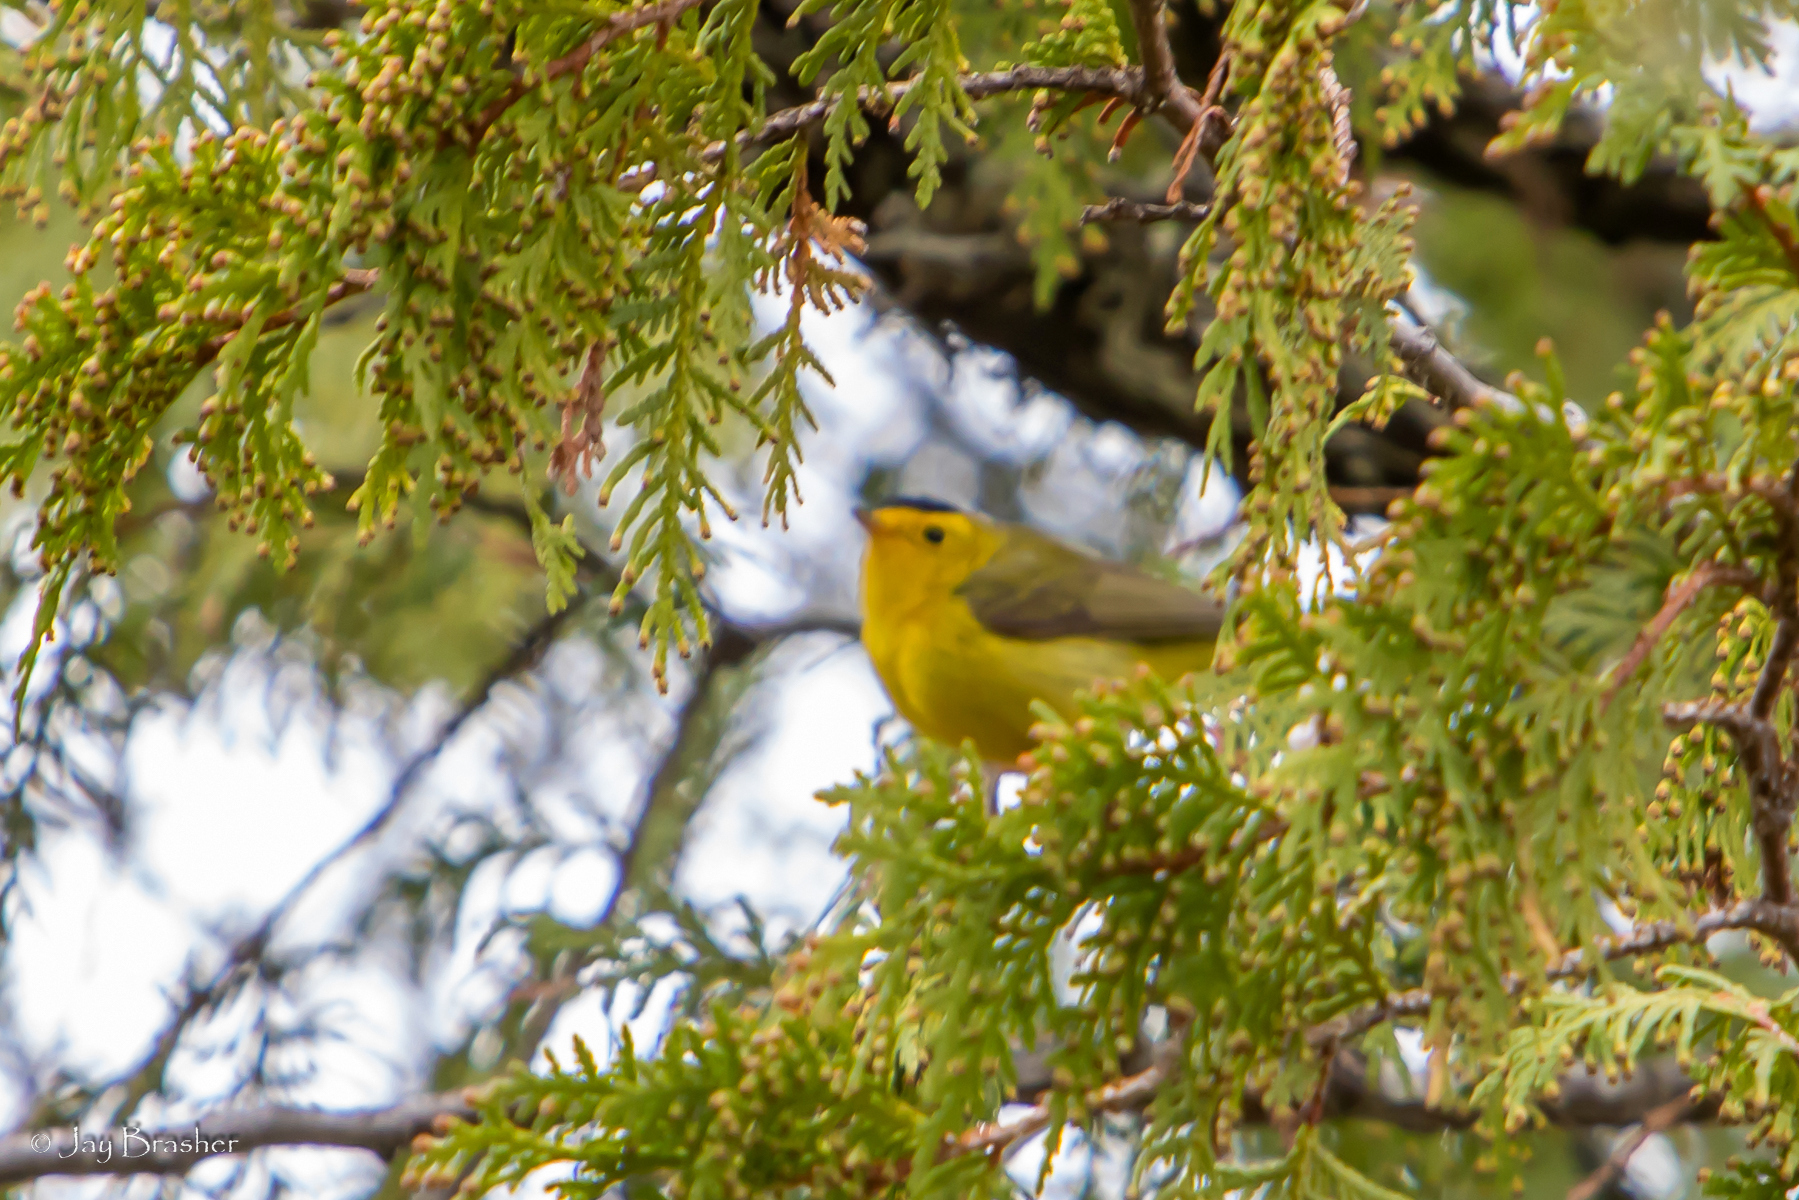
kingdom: Animalia
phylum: Chordata
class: Aves
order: Passeriformes
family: Parulidae
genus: Cardellina
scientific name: Cardellina pusilla
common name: Wilson's warbler
